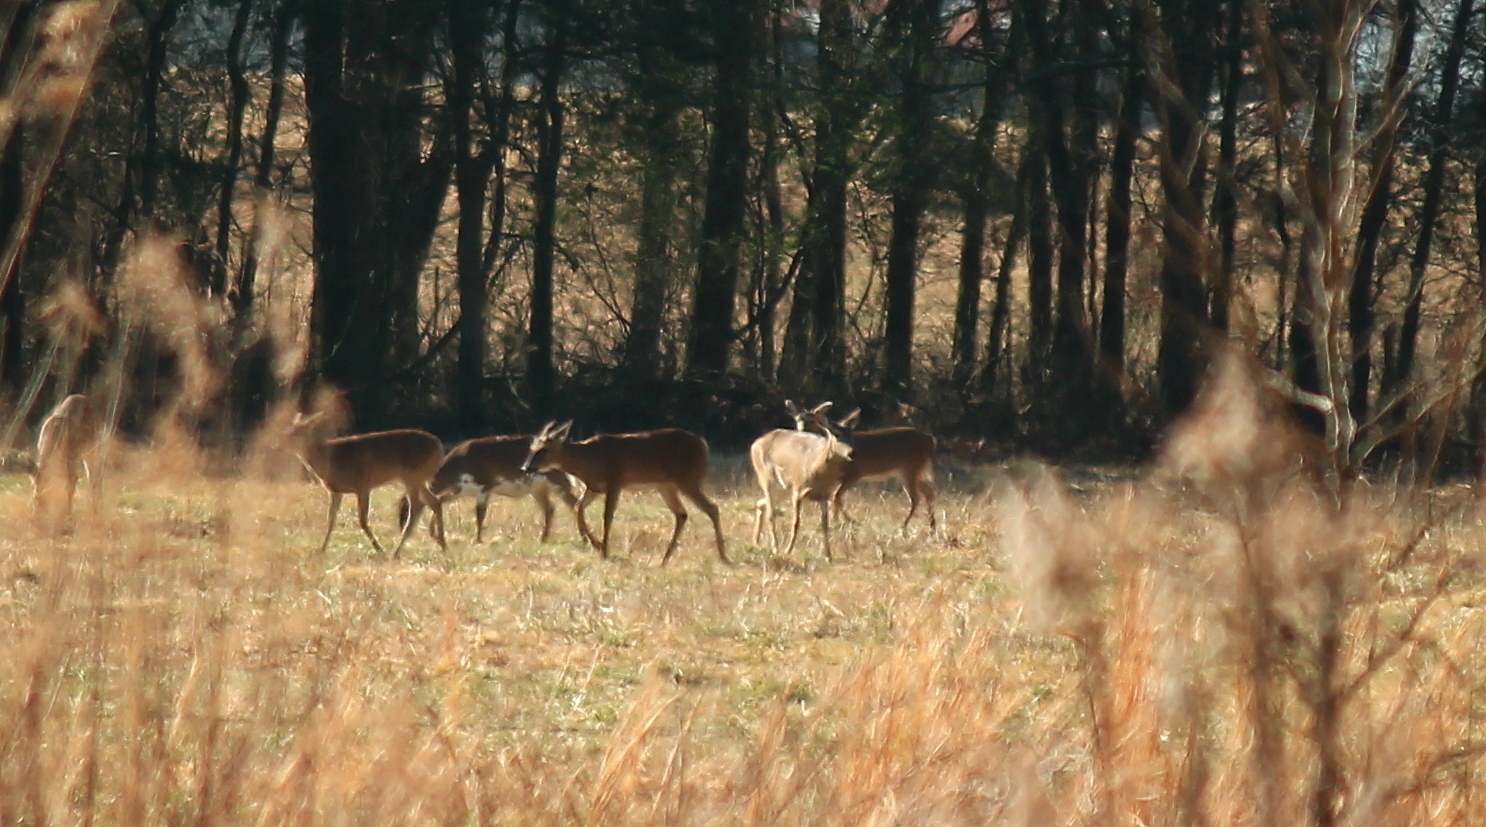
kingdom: Animalia
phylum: Chordata
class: Mammalia
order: Artiodactyla
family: Cervidae
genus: Odocoileus
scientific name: Odocoileus virginianus
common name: White-tailed deer
